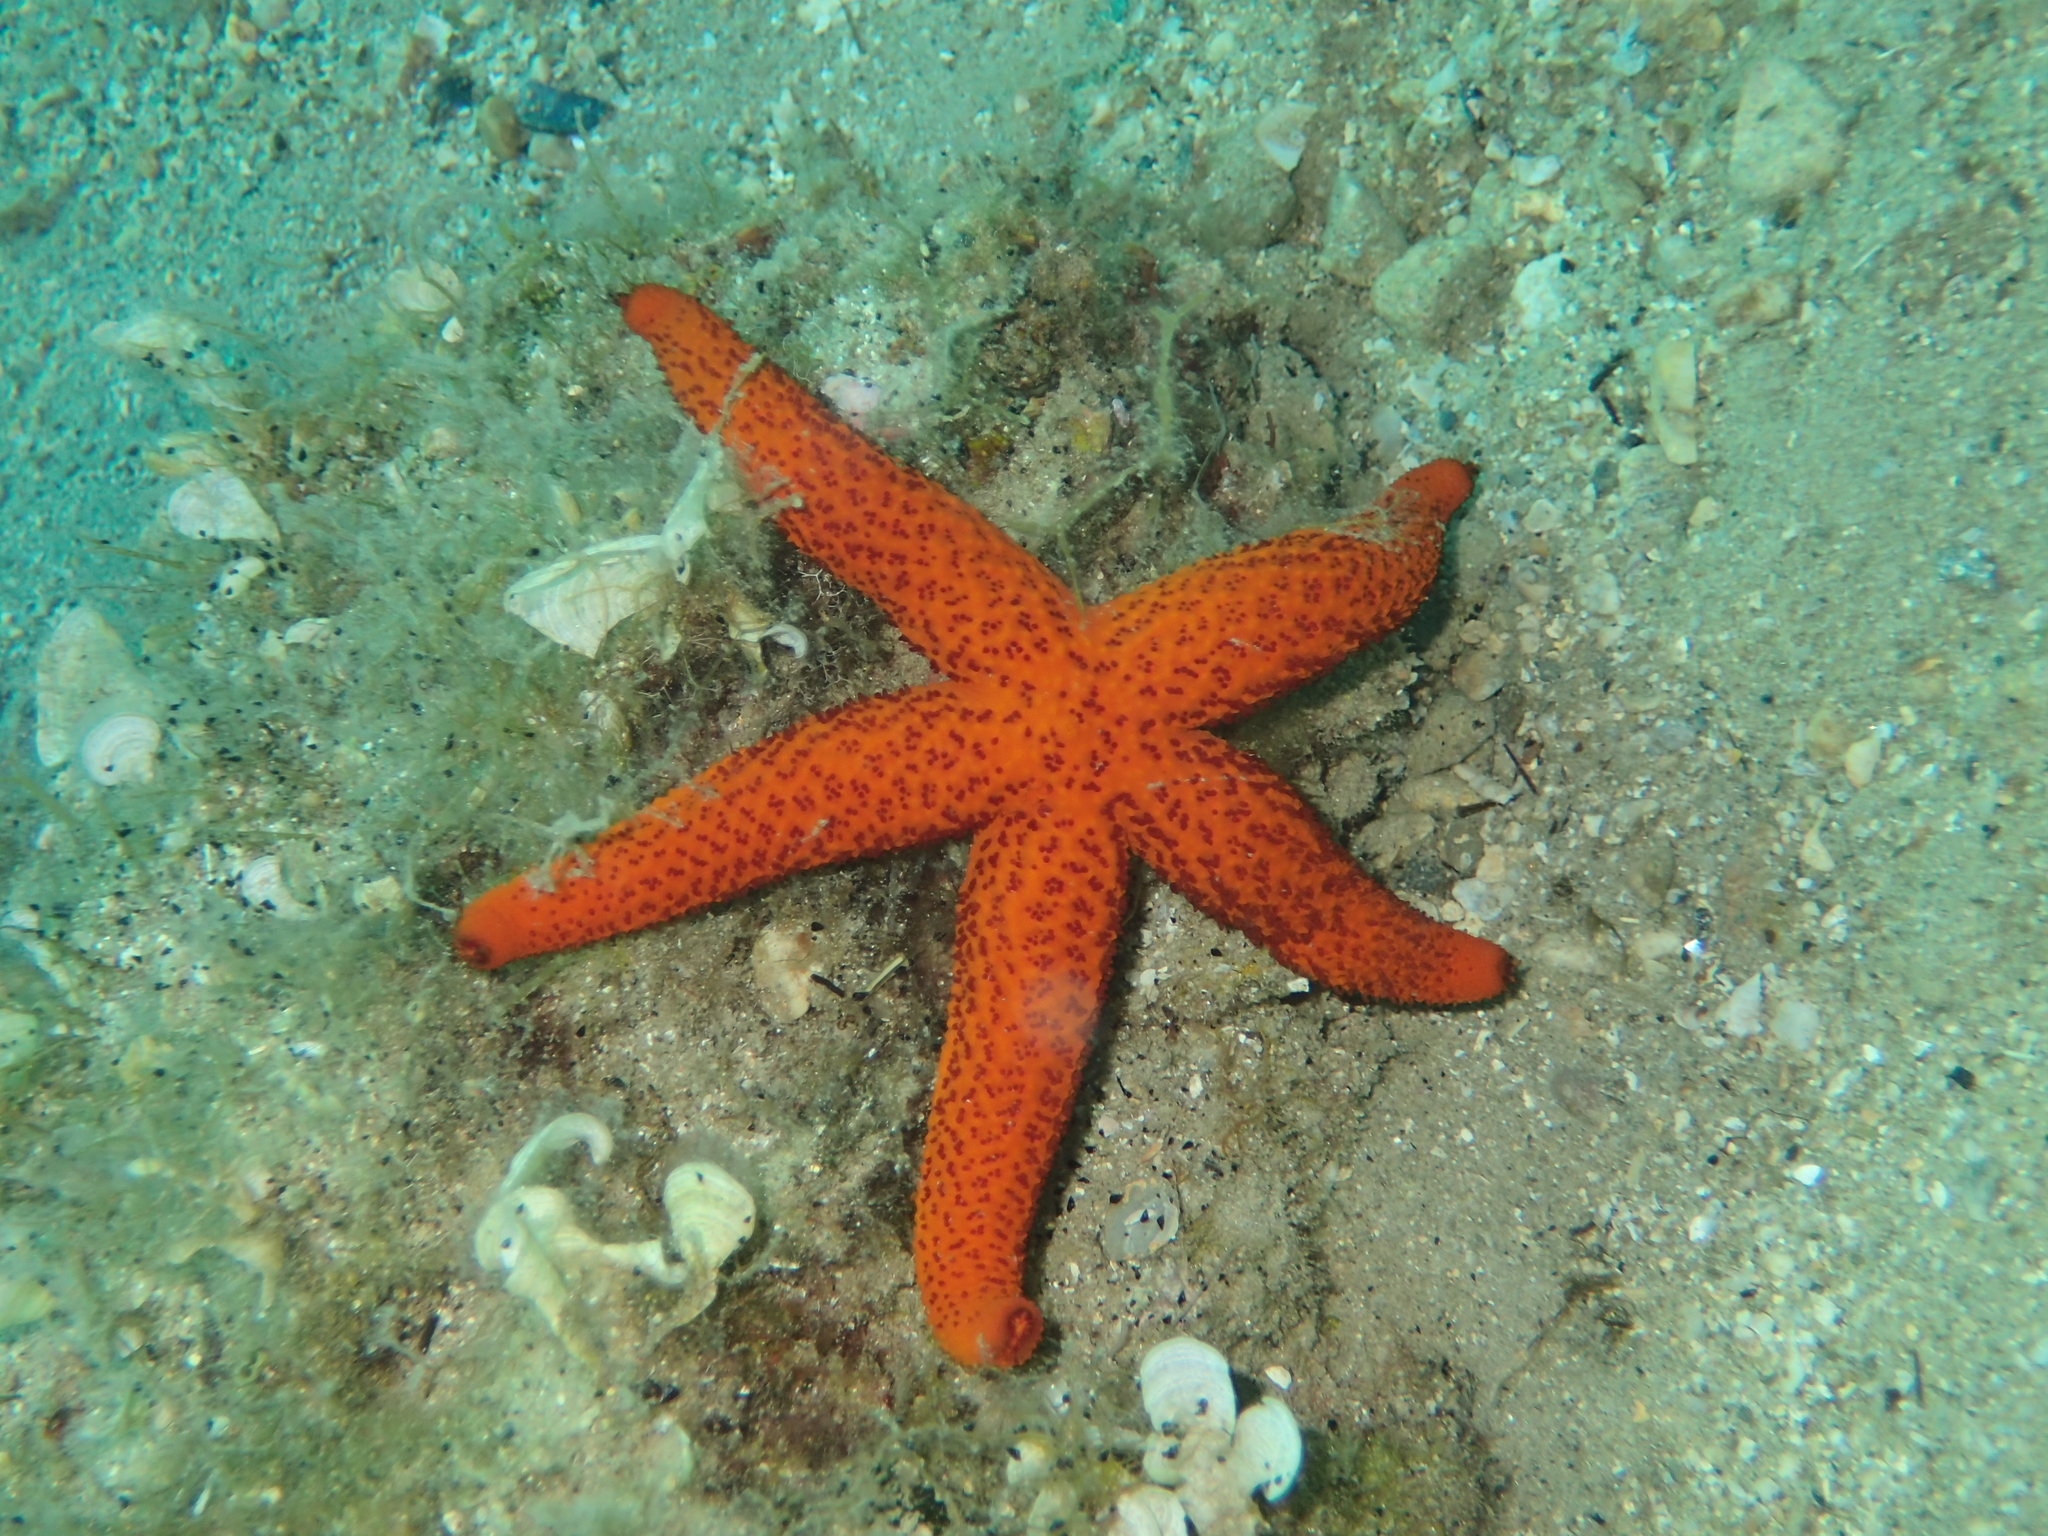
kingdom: Animalia
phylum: Echinodermata
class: Asteroidea
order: Spinulosida
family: Echinasteridae
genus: Echinaster
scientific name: Echinaster sepositus
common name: Red starfish
